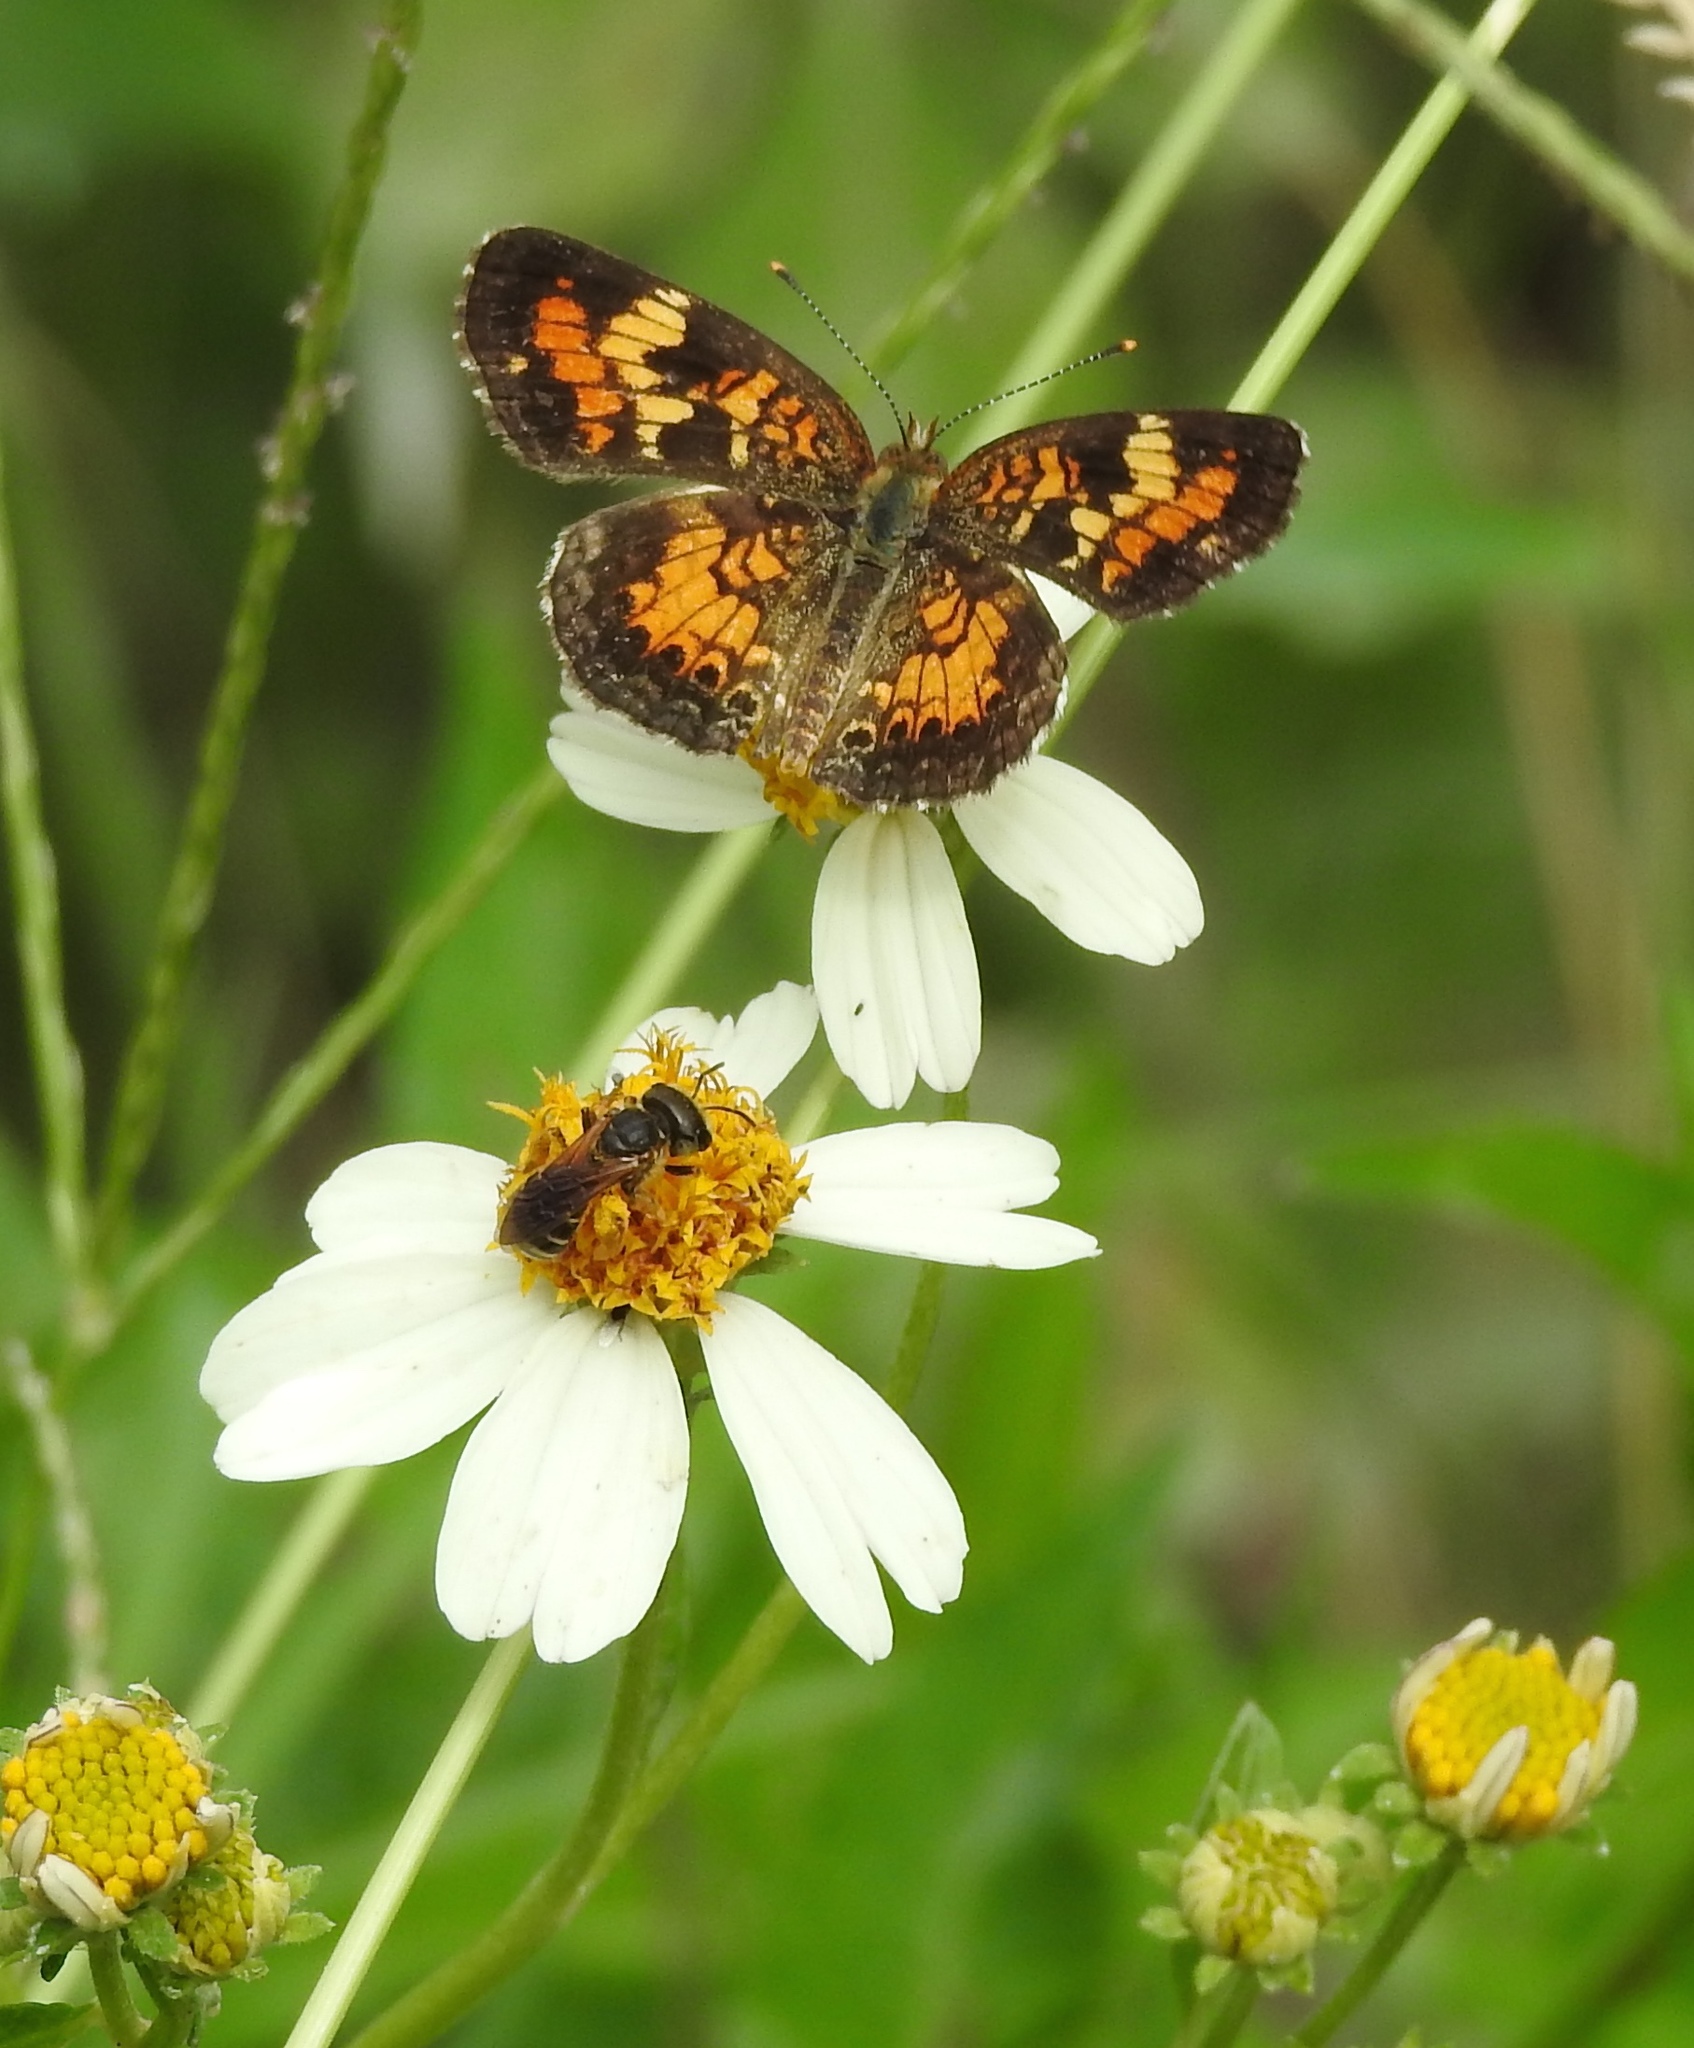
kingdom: Animalia
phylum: Arthropoda
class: Insecta
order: Lepidoptera
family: Nymphalidae
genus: Phyciodes
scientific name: Phyciodes phaon
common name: Phaon crescent
